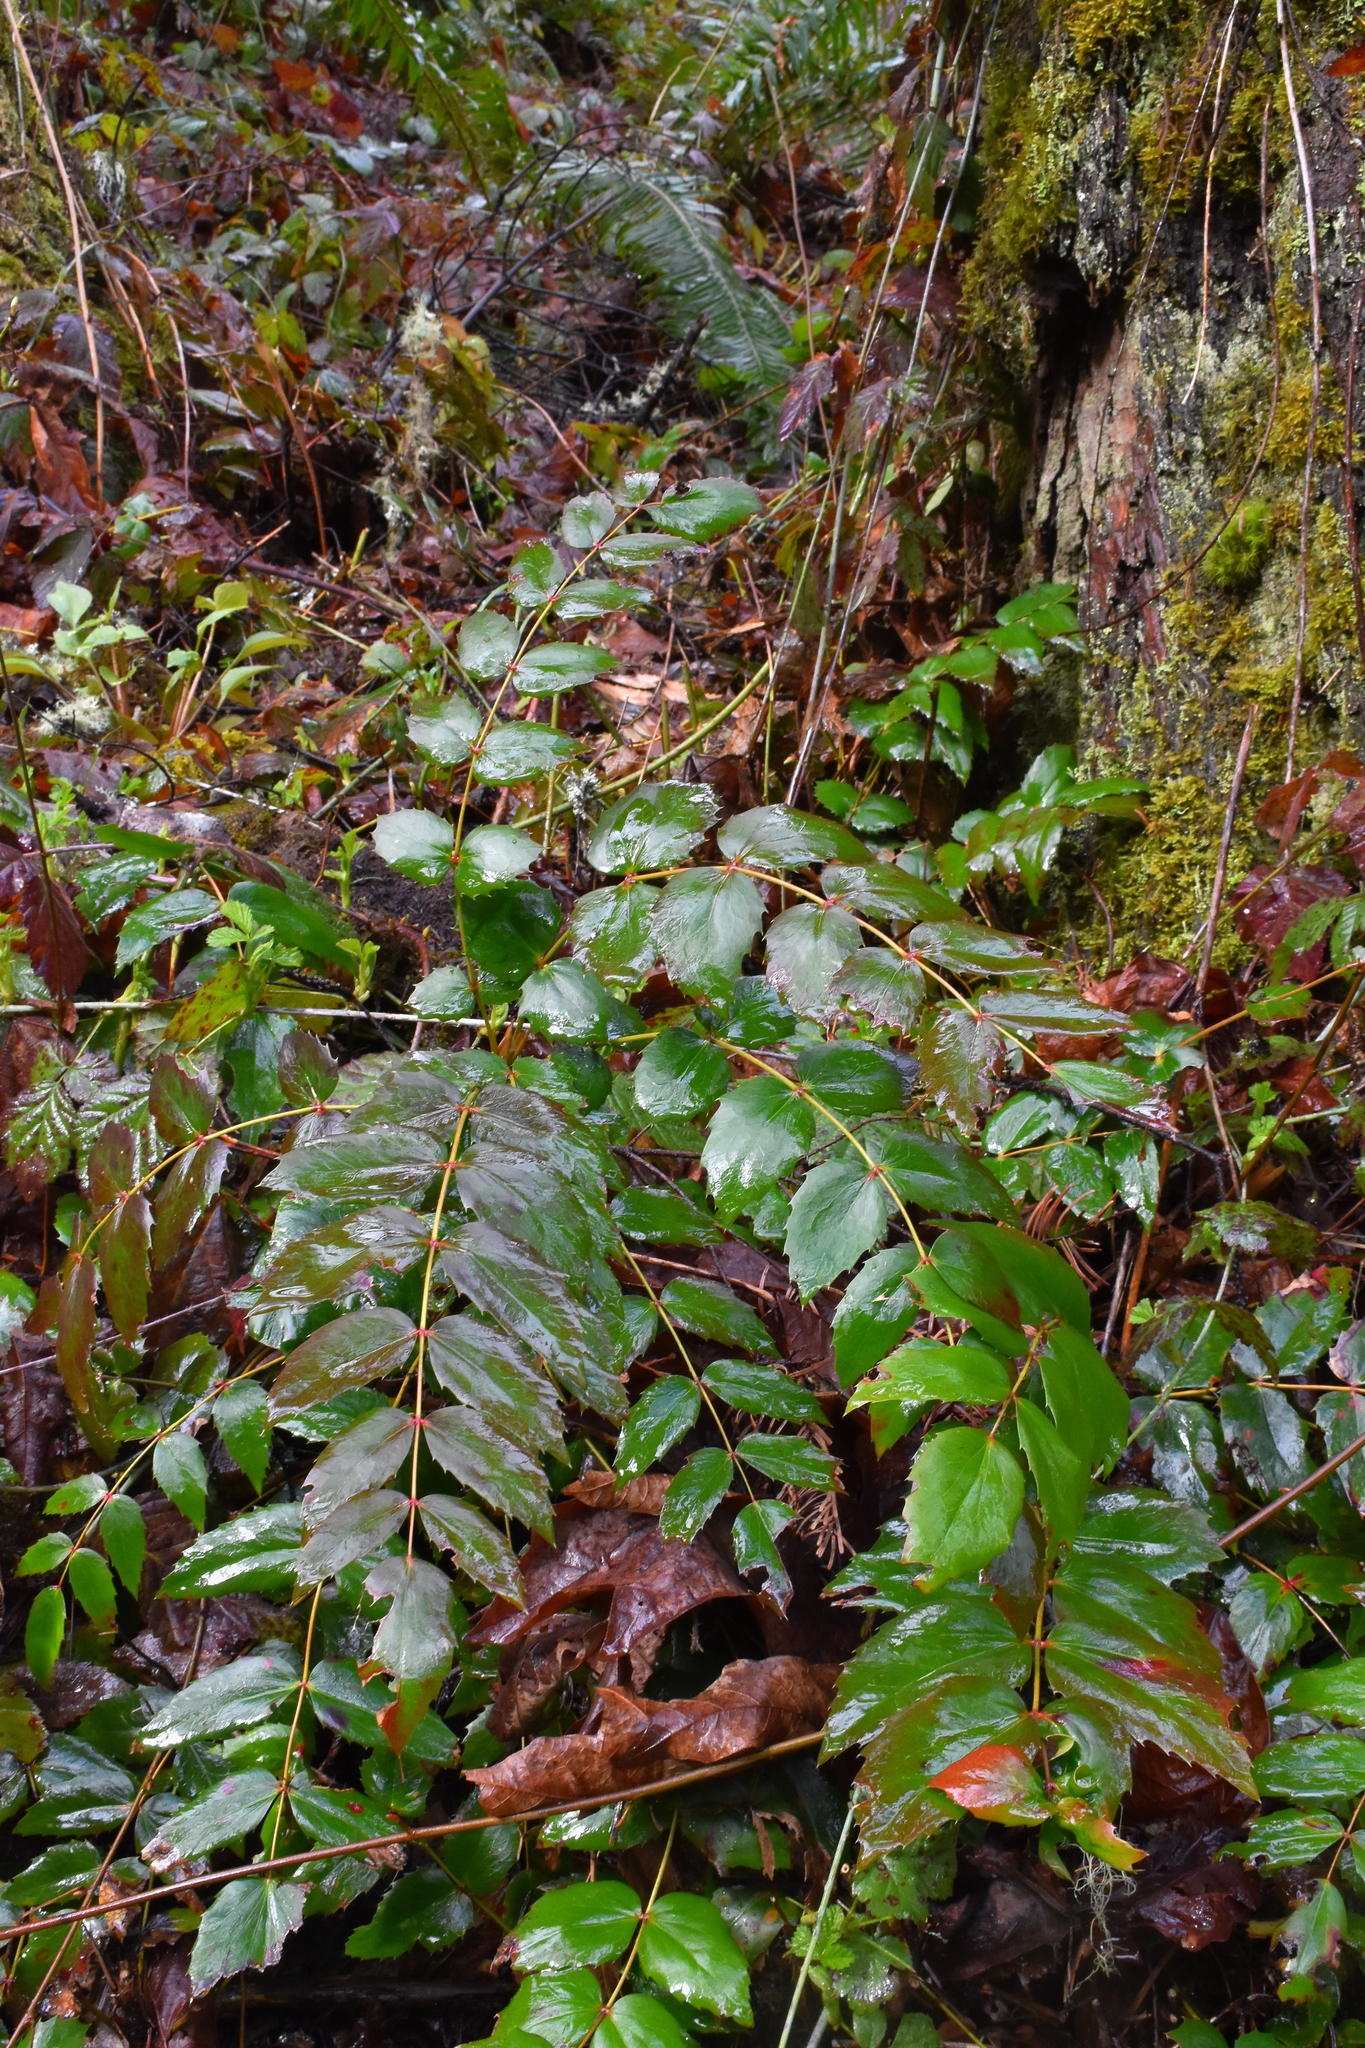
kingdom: Plantae
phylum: Tracheophyta
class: Magnoliopsida
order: Ranunculales
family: Berberidaceae
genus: Mahonia
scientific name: Mahonia nervosa
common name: Cascade oregon-grape
